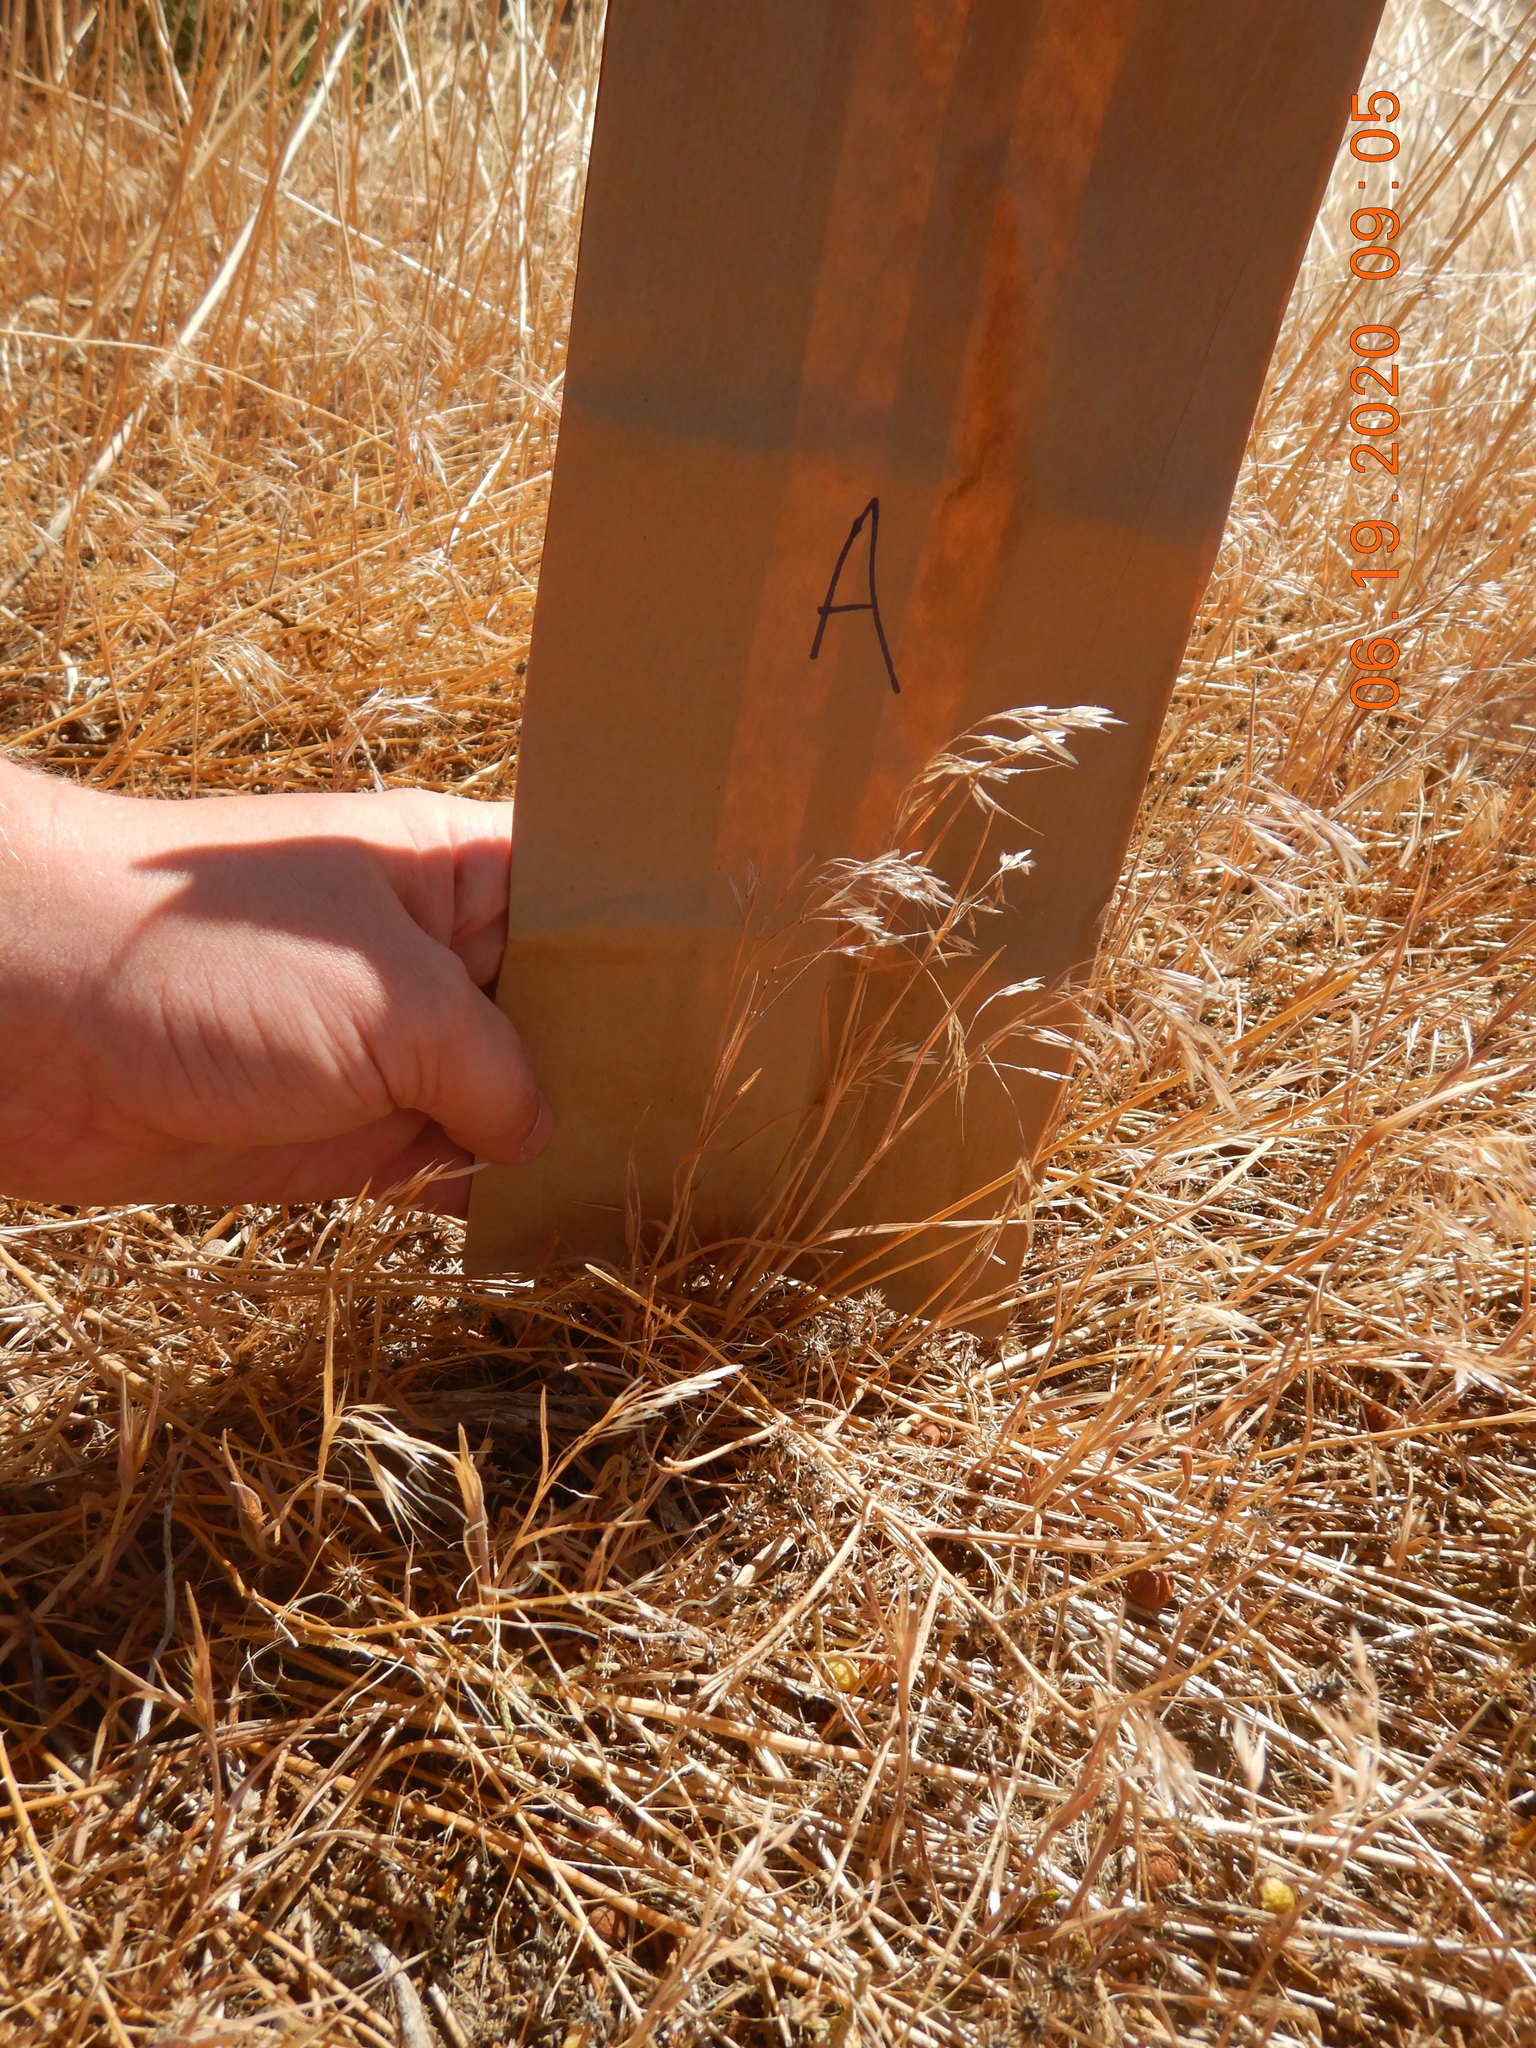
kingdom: Plantae
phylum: Tracheophyta
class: Liliopsida
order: Poales
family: Poaceae
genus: Bromus
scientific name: Bromus tectorum
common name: Cheatgrass
